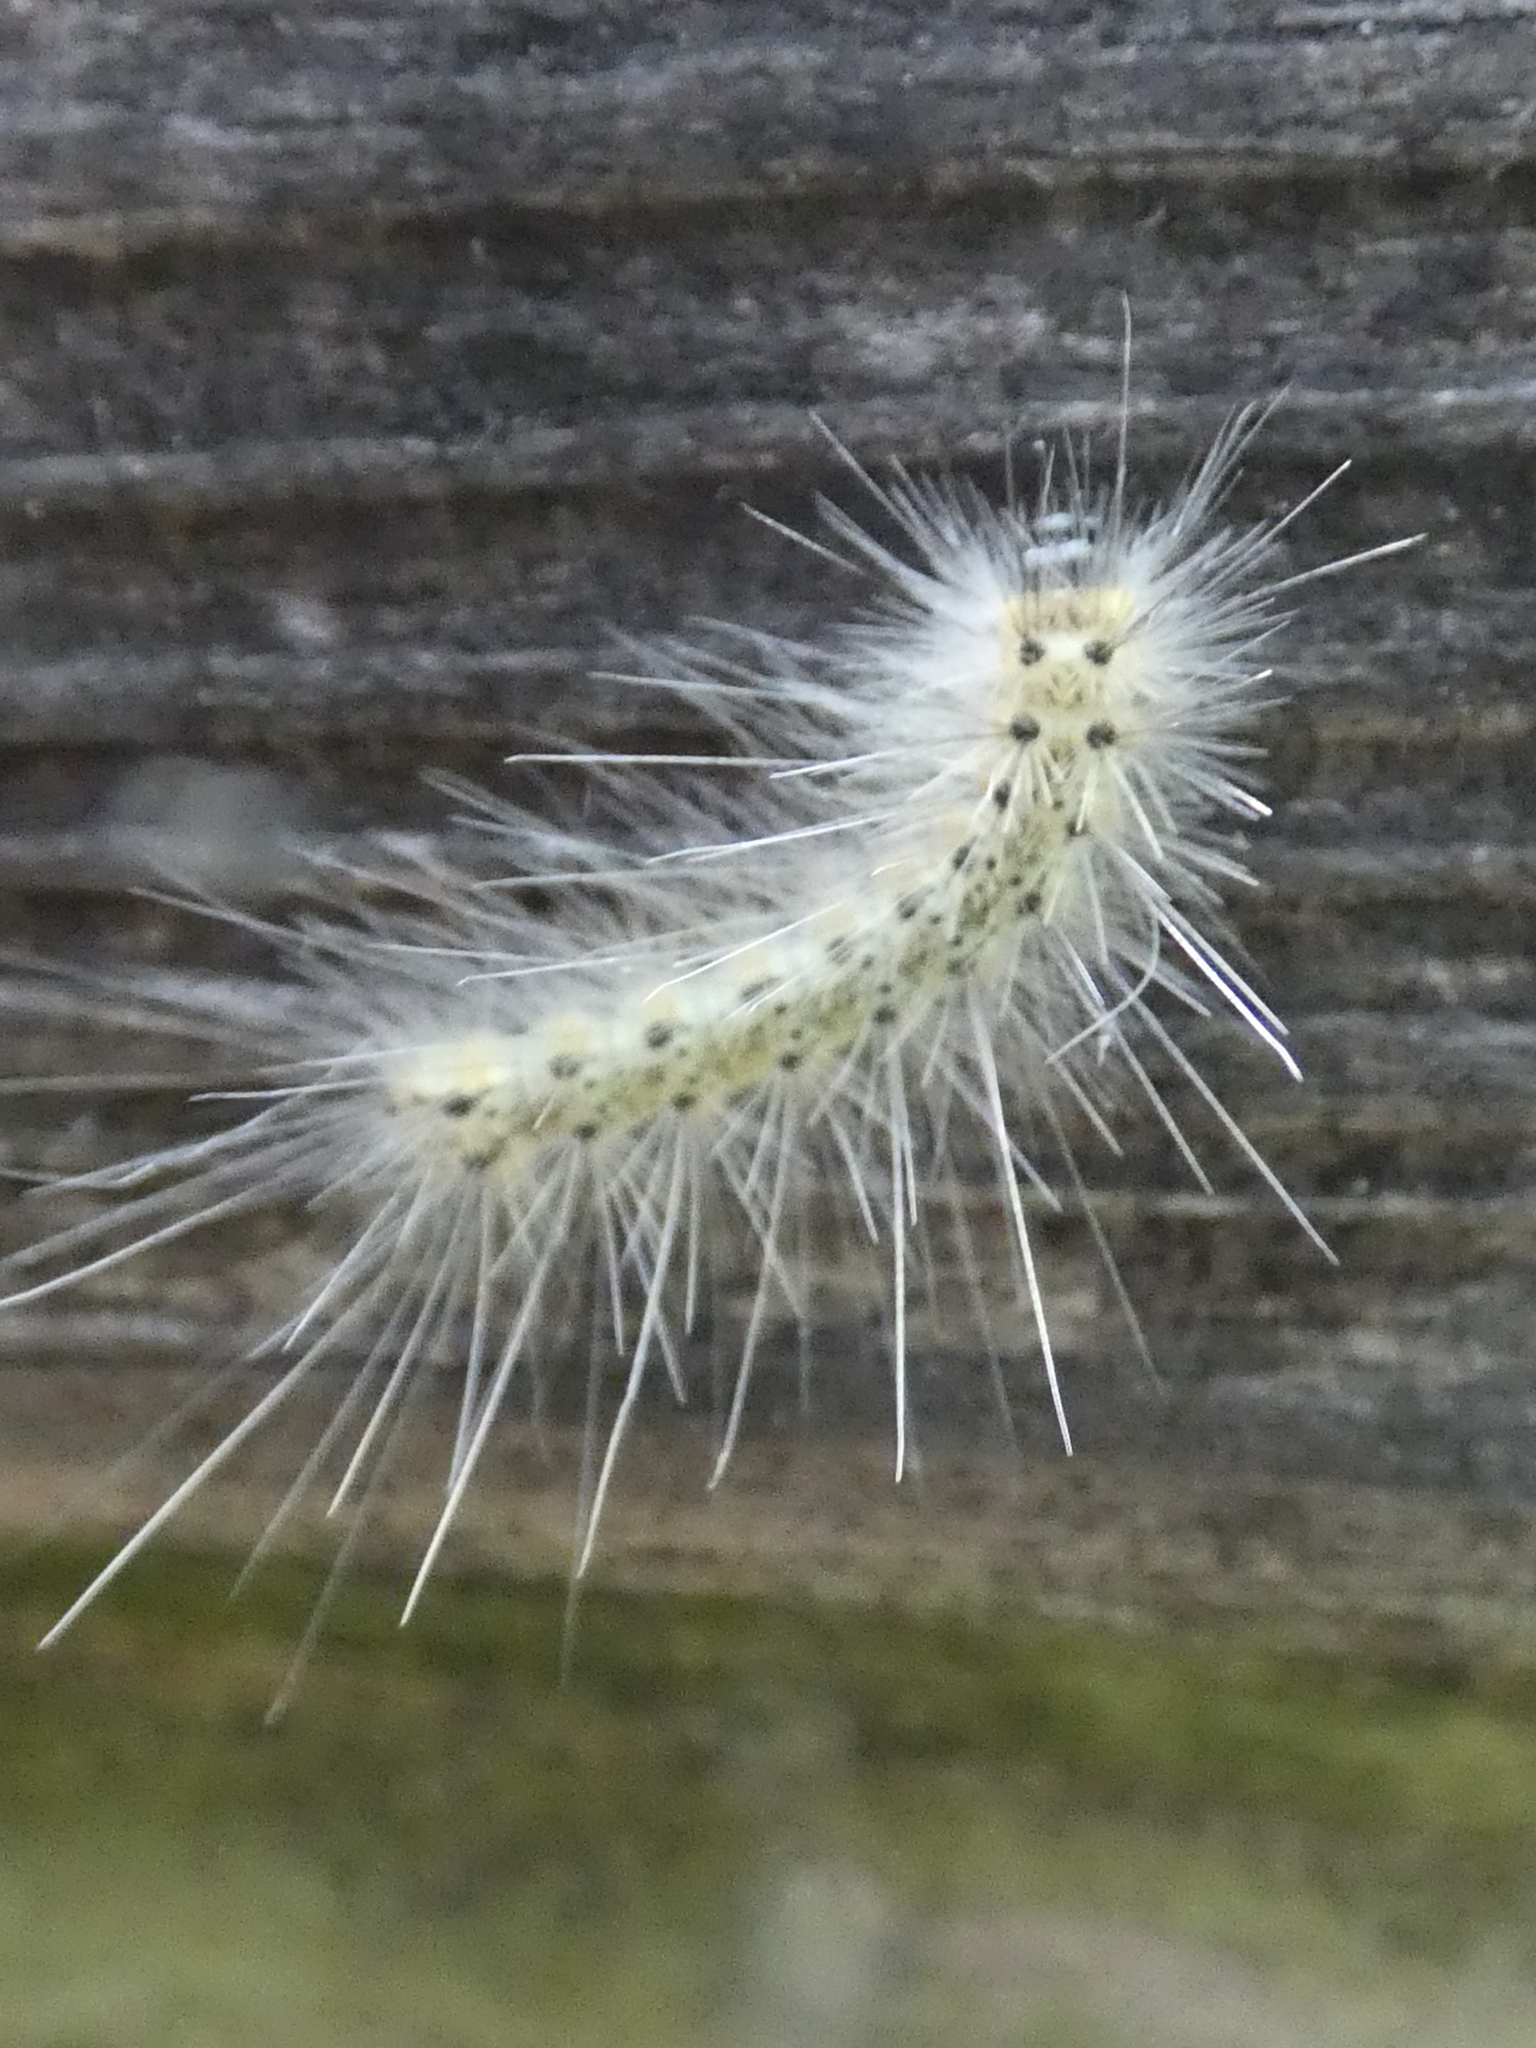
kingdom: Animalia
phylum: Arthropoda
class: Insecta
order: Lepidoptera
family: Erebidae
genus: Hyphantria
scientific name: Hyphantria cunea
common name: American white moth
